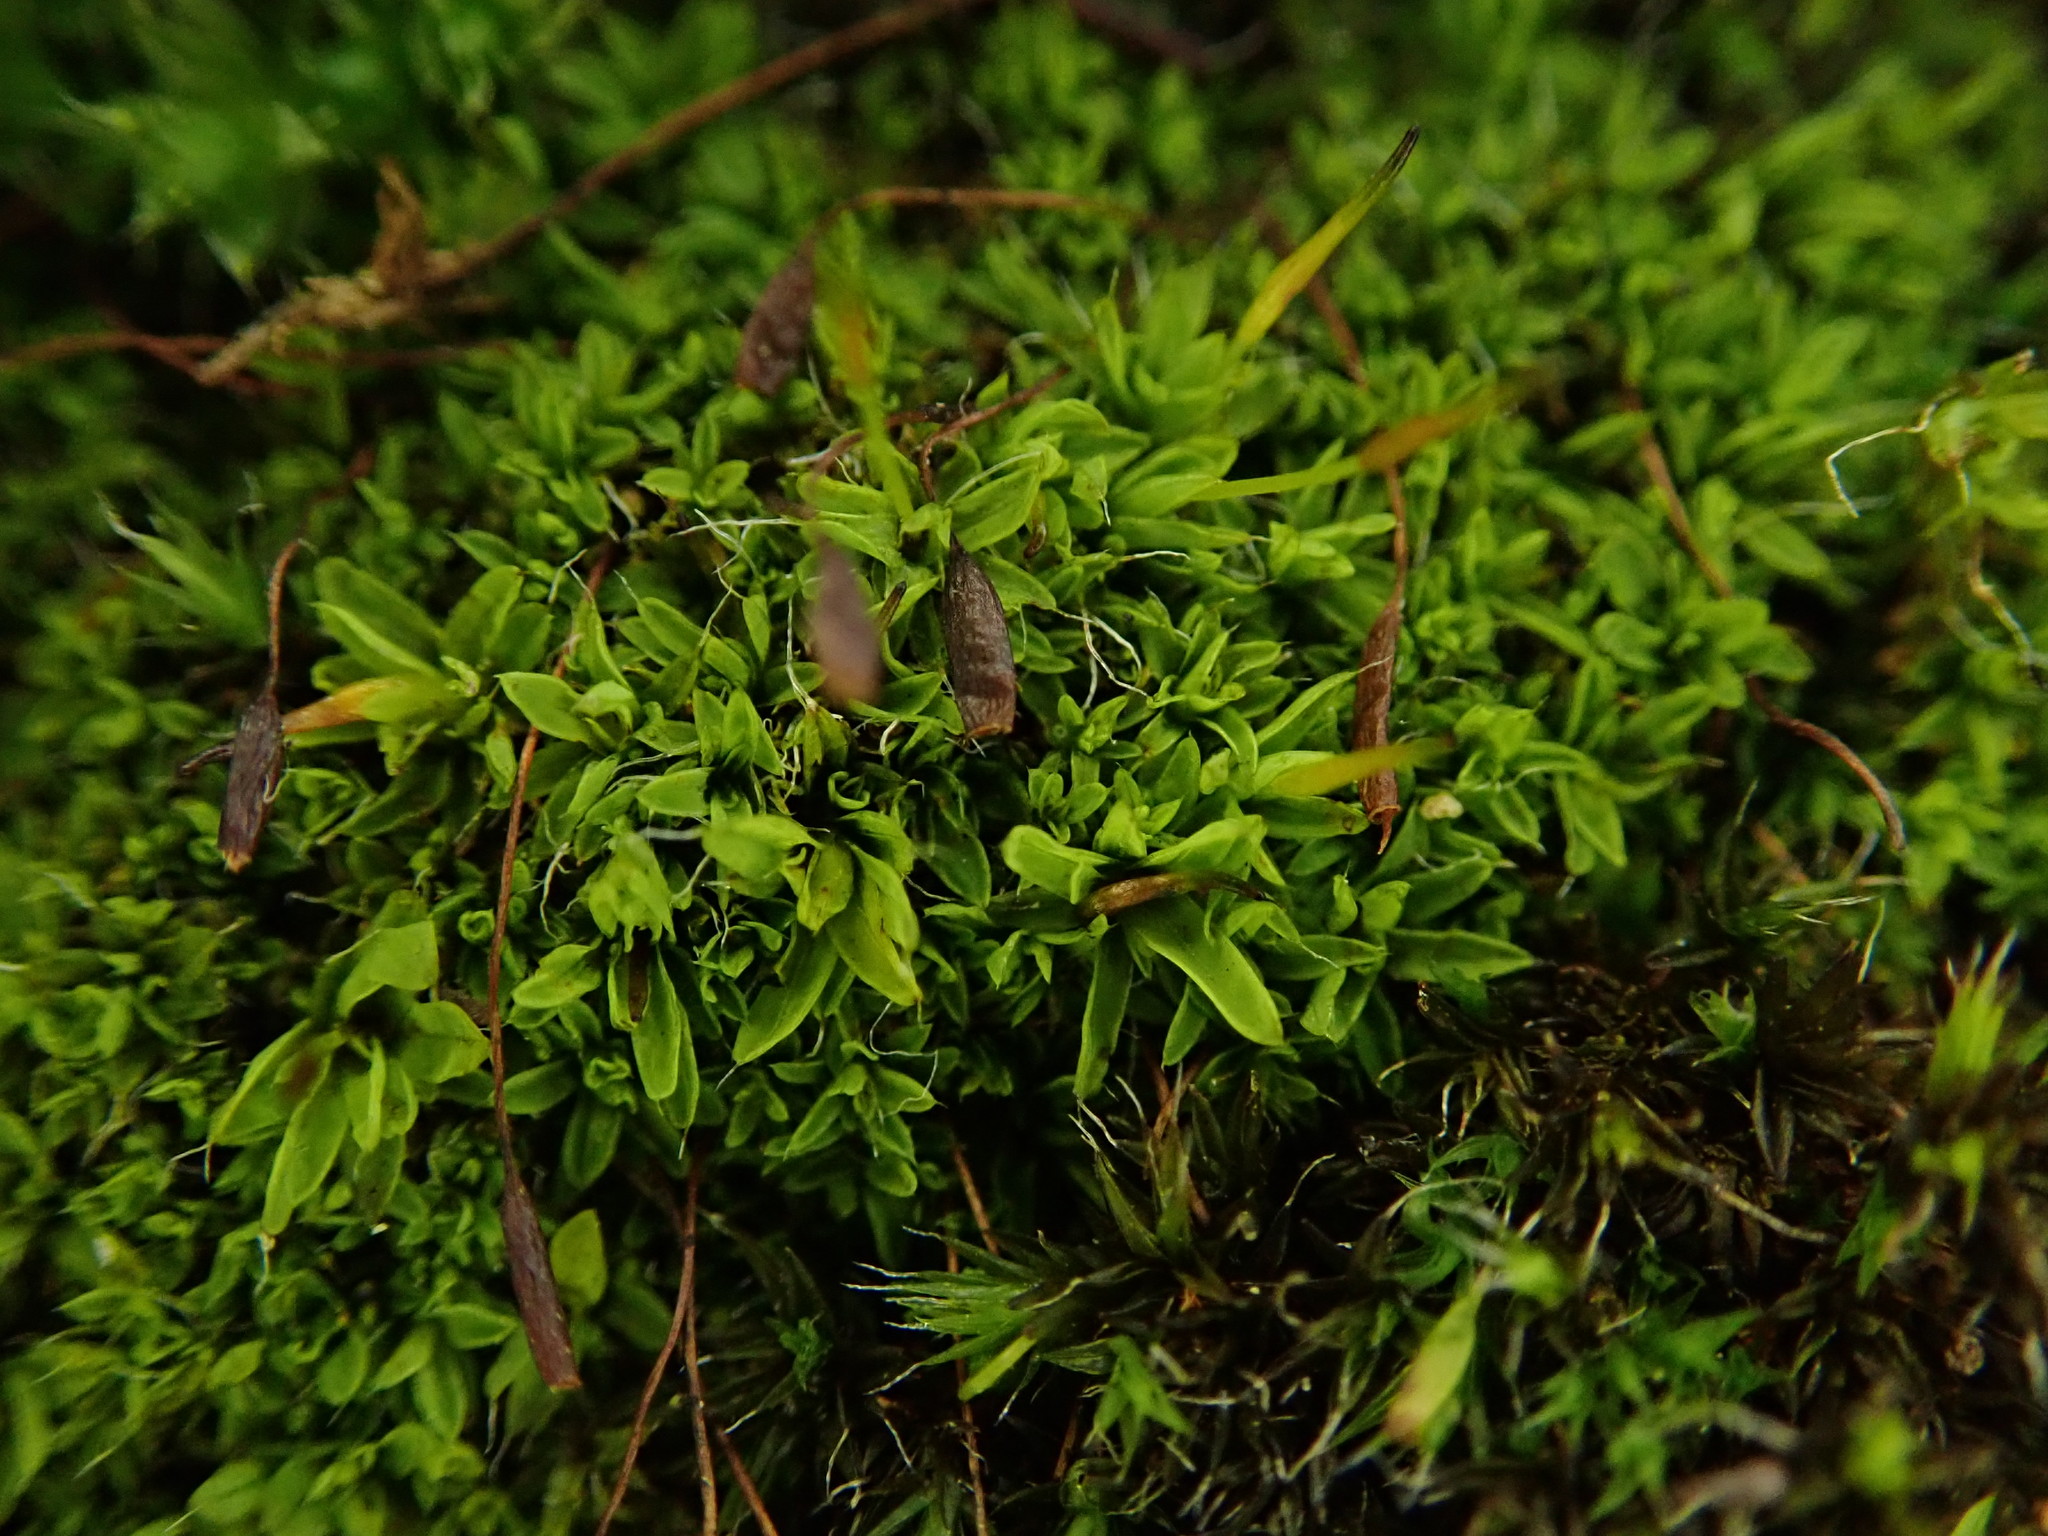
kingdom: Plantae
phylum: Bryophyta
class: Bryopsida
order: Pottiales
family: Pottiaceae
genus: Tortula
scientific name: Tortula muralis
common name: Wall screw-moss
